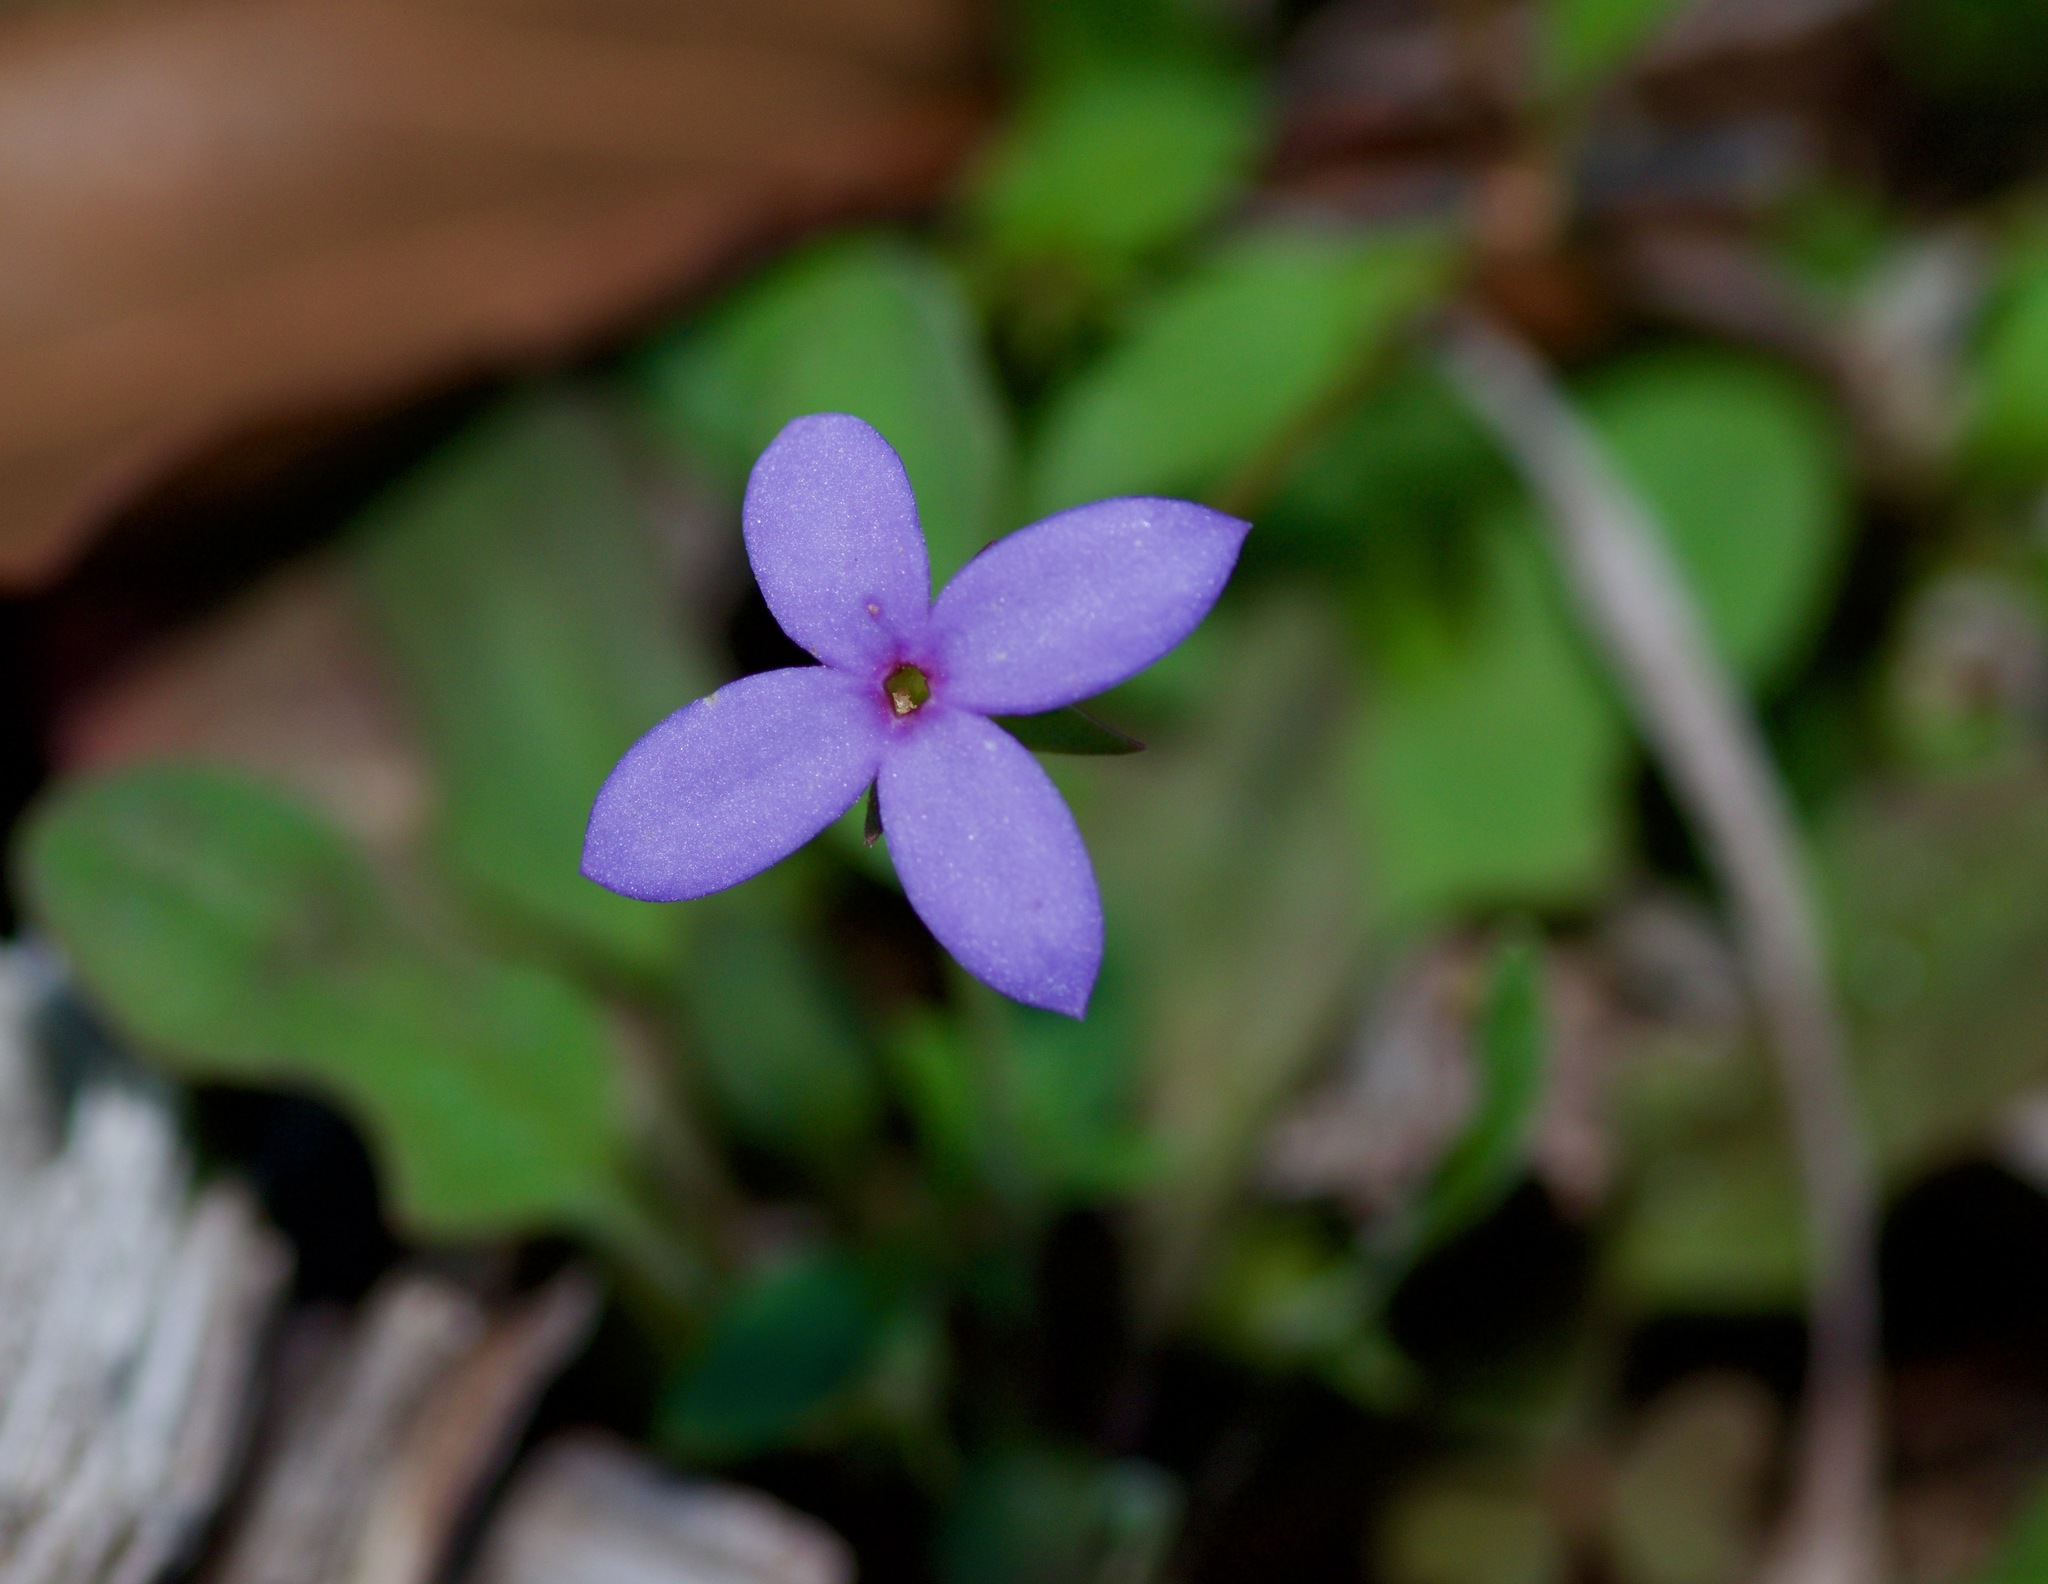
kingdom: Plantae
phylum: Tracheophyta
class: Magnoliopsida
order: Gentianales
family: Rubiaceae
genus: Houstonia
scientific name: Houstonia pusilla
